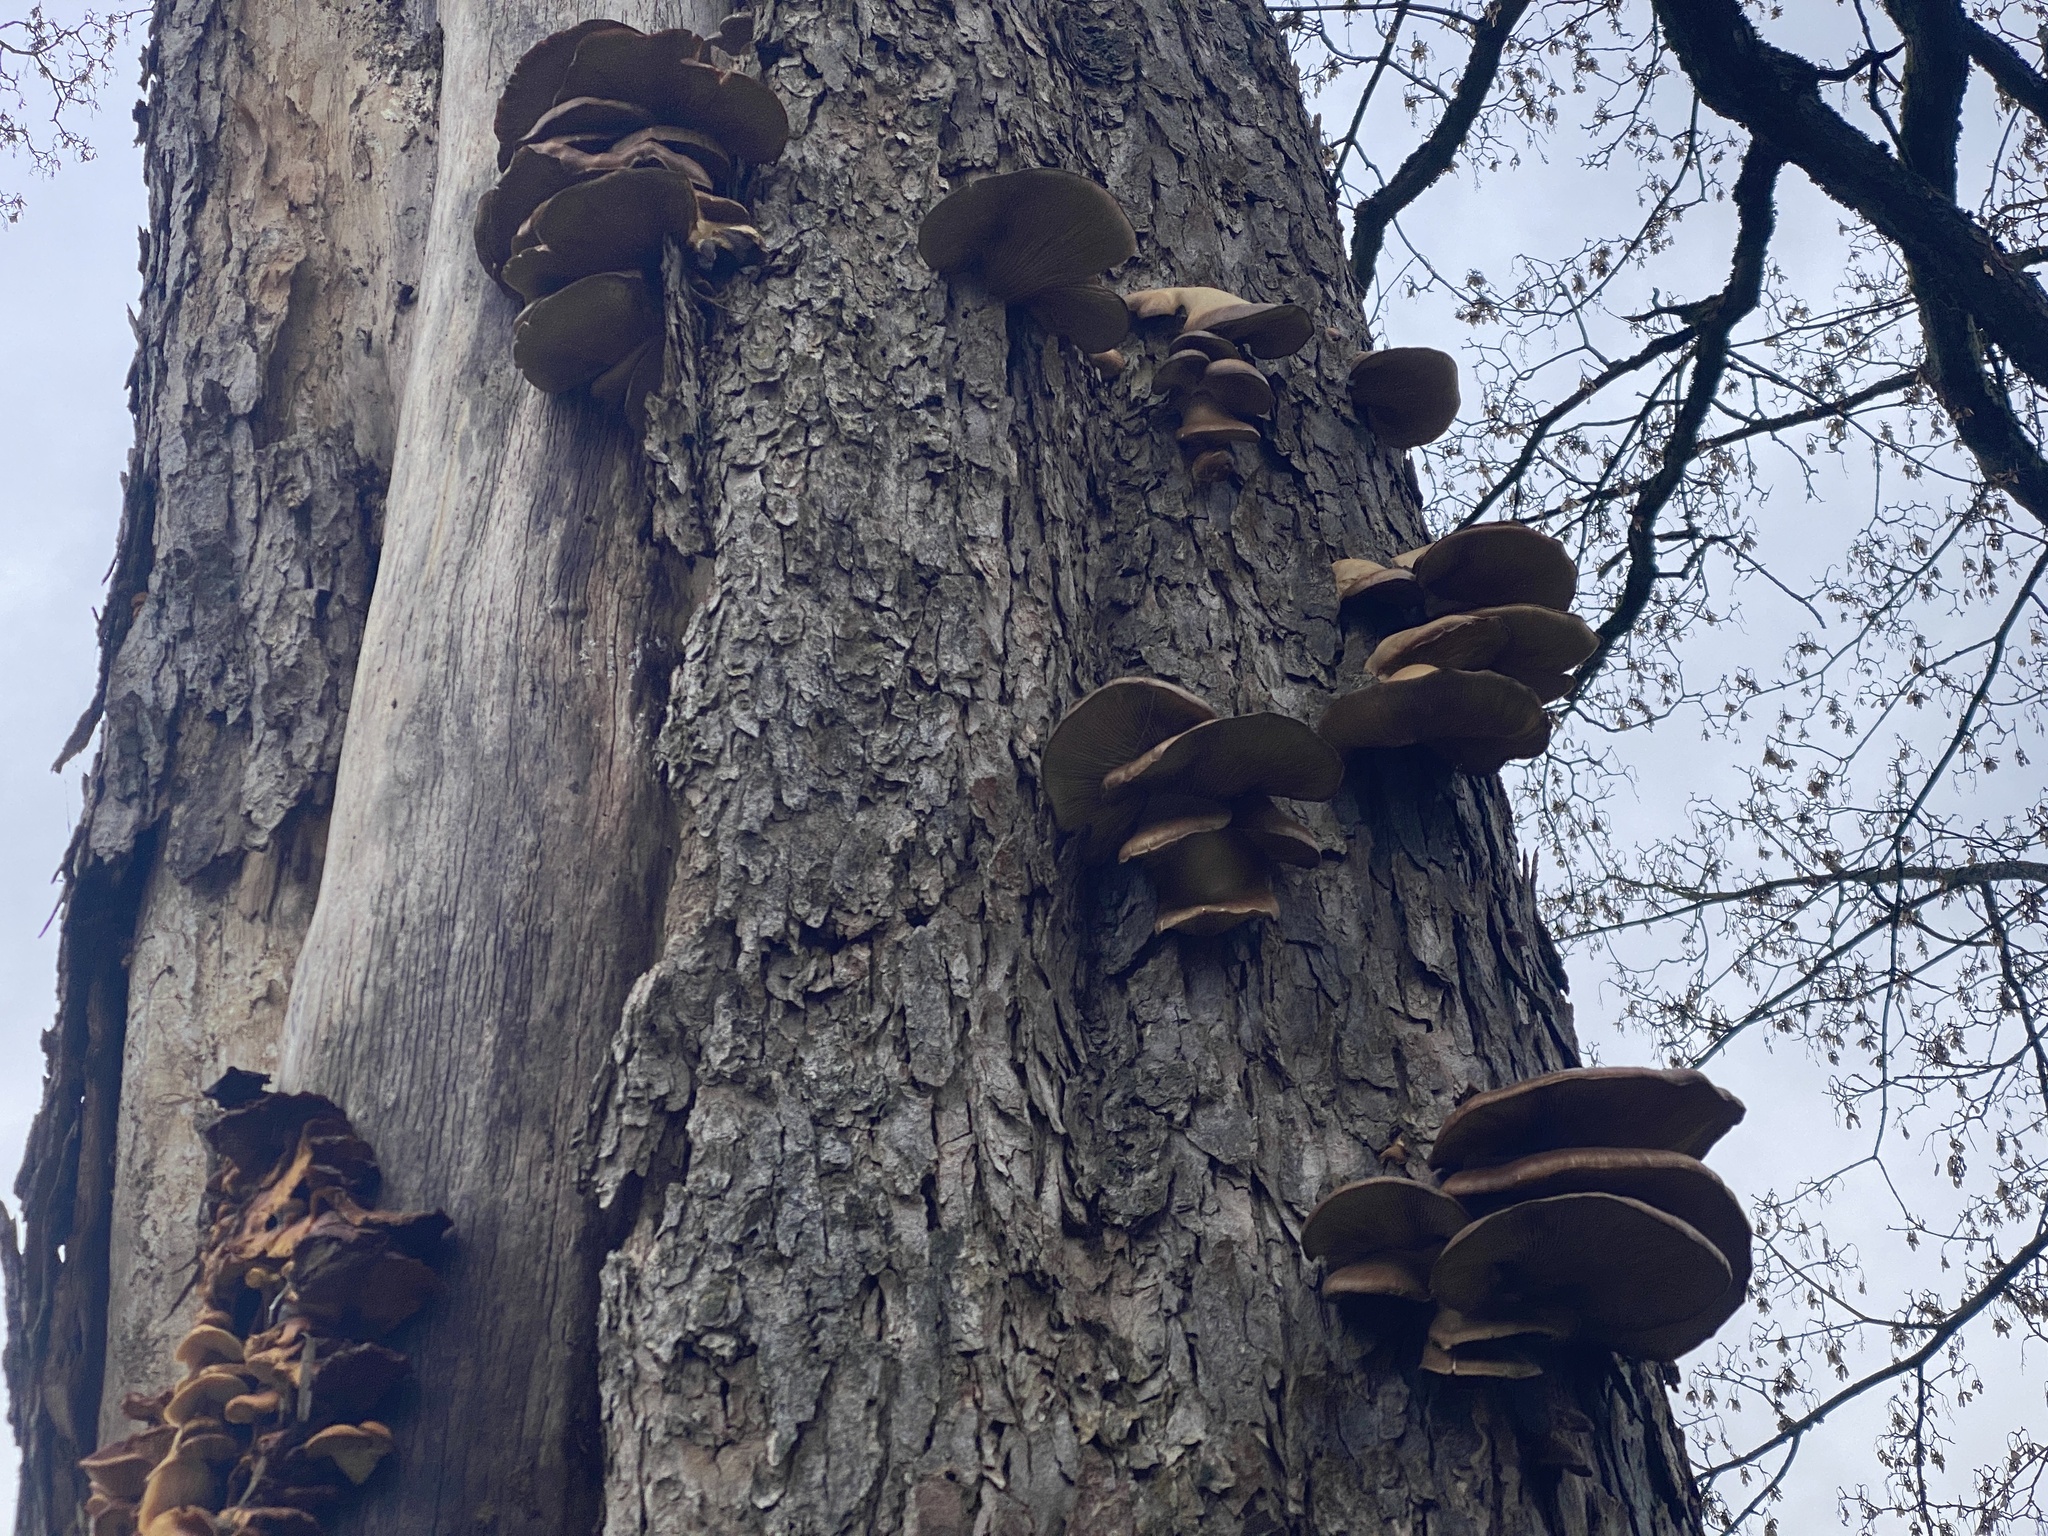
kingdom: Fungi
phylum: Basidiomycota
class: Agaricomycetes
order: Agaricales
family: Pleurotaceae
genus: Pleurotus
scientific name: Pleurotus ostreatus
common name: Oyster mushroom
